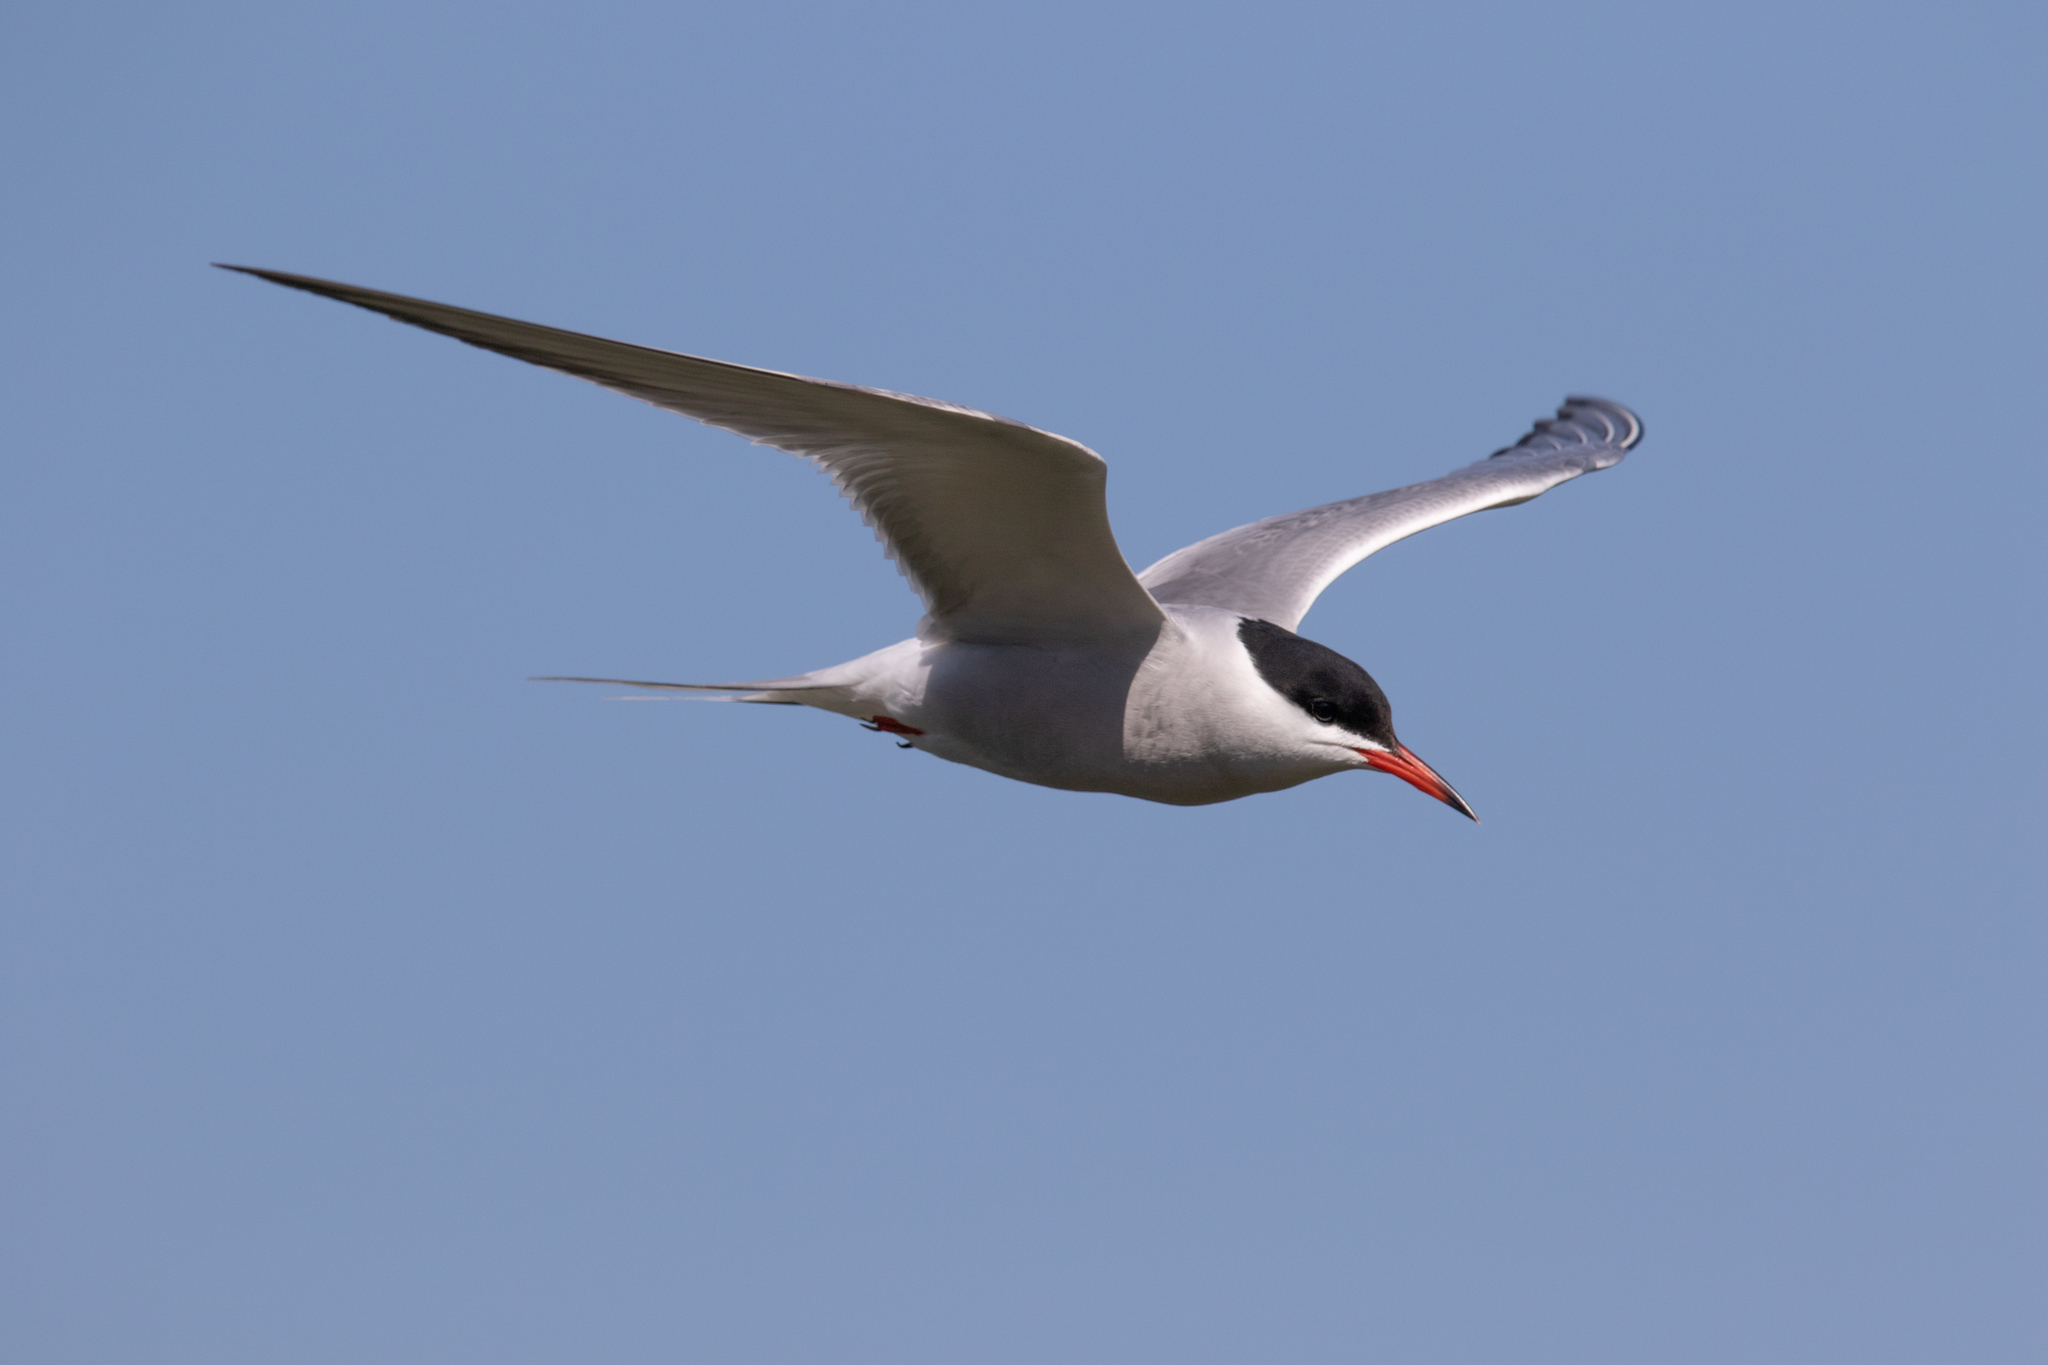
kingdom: Animalia
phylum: Chordata
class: Aves
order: Charadriiformes
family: Laridae
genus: Sterna
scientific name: Sterna hirundo
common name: Common tern
